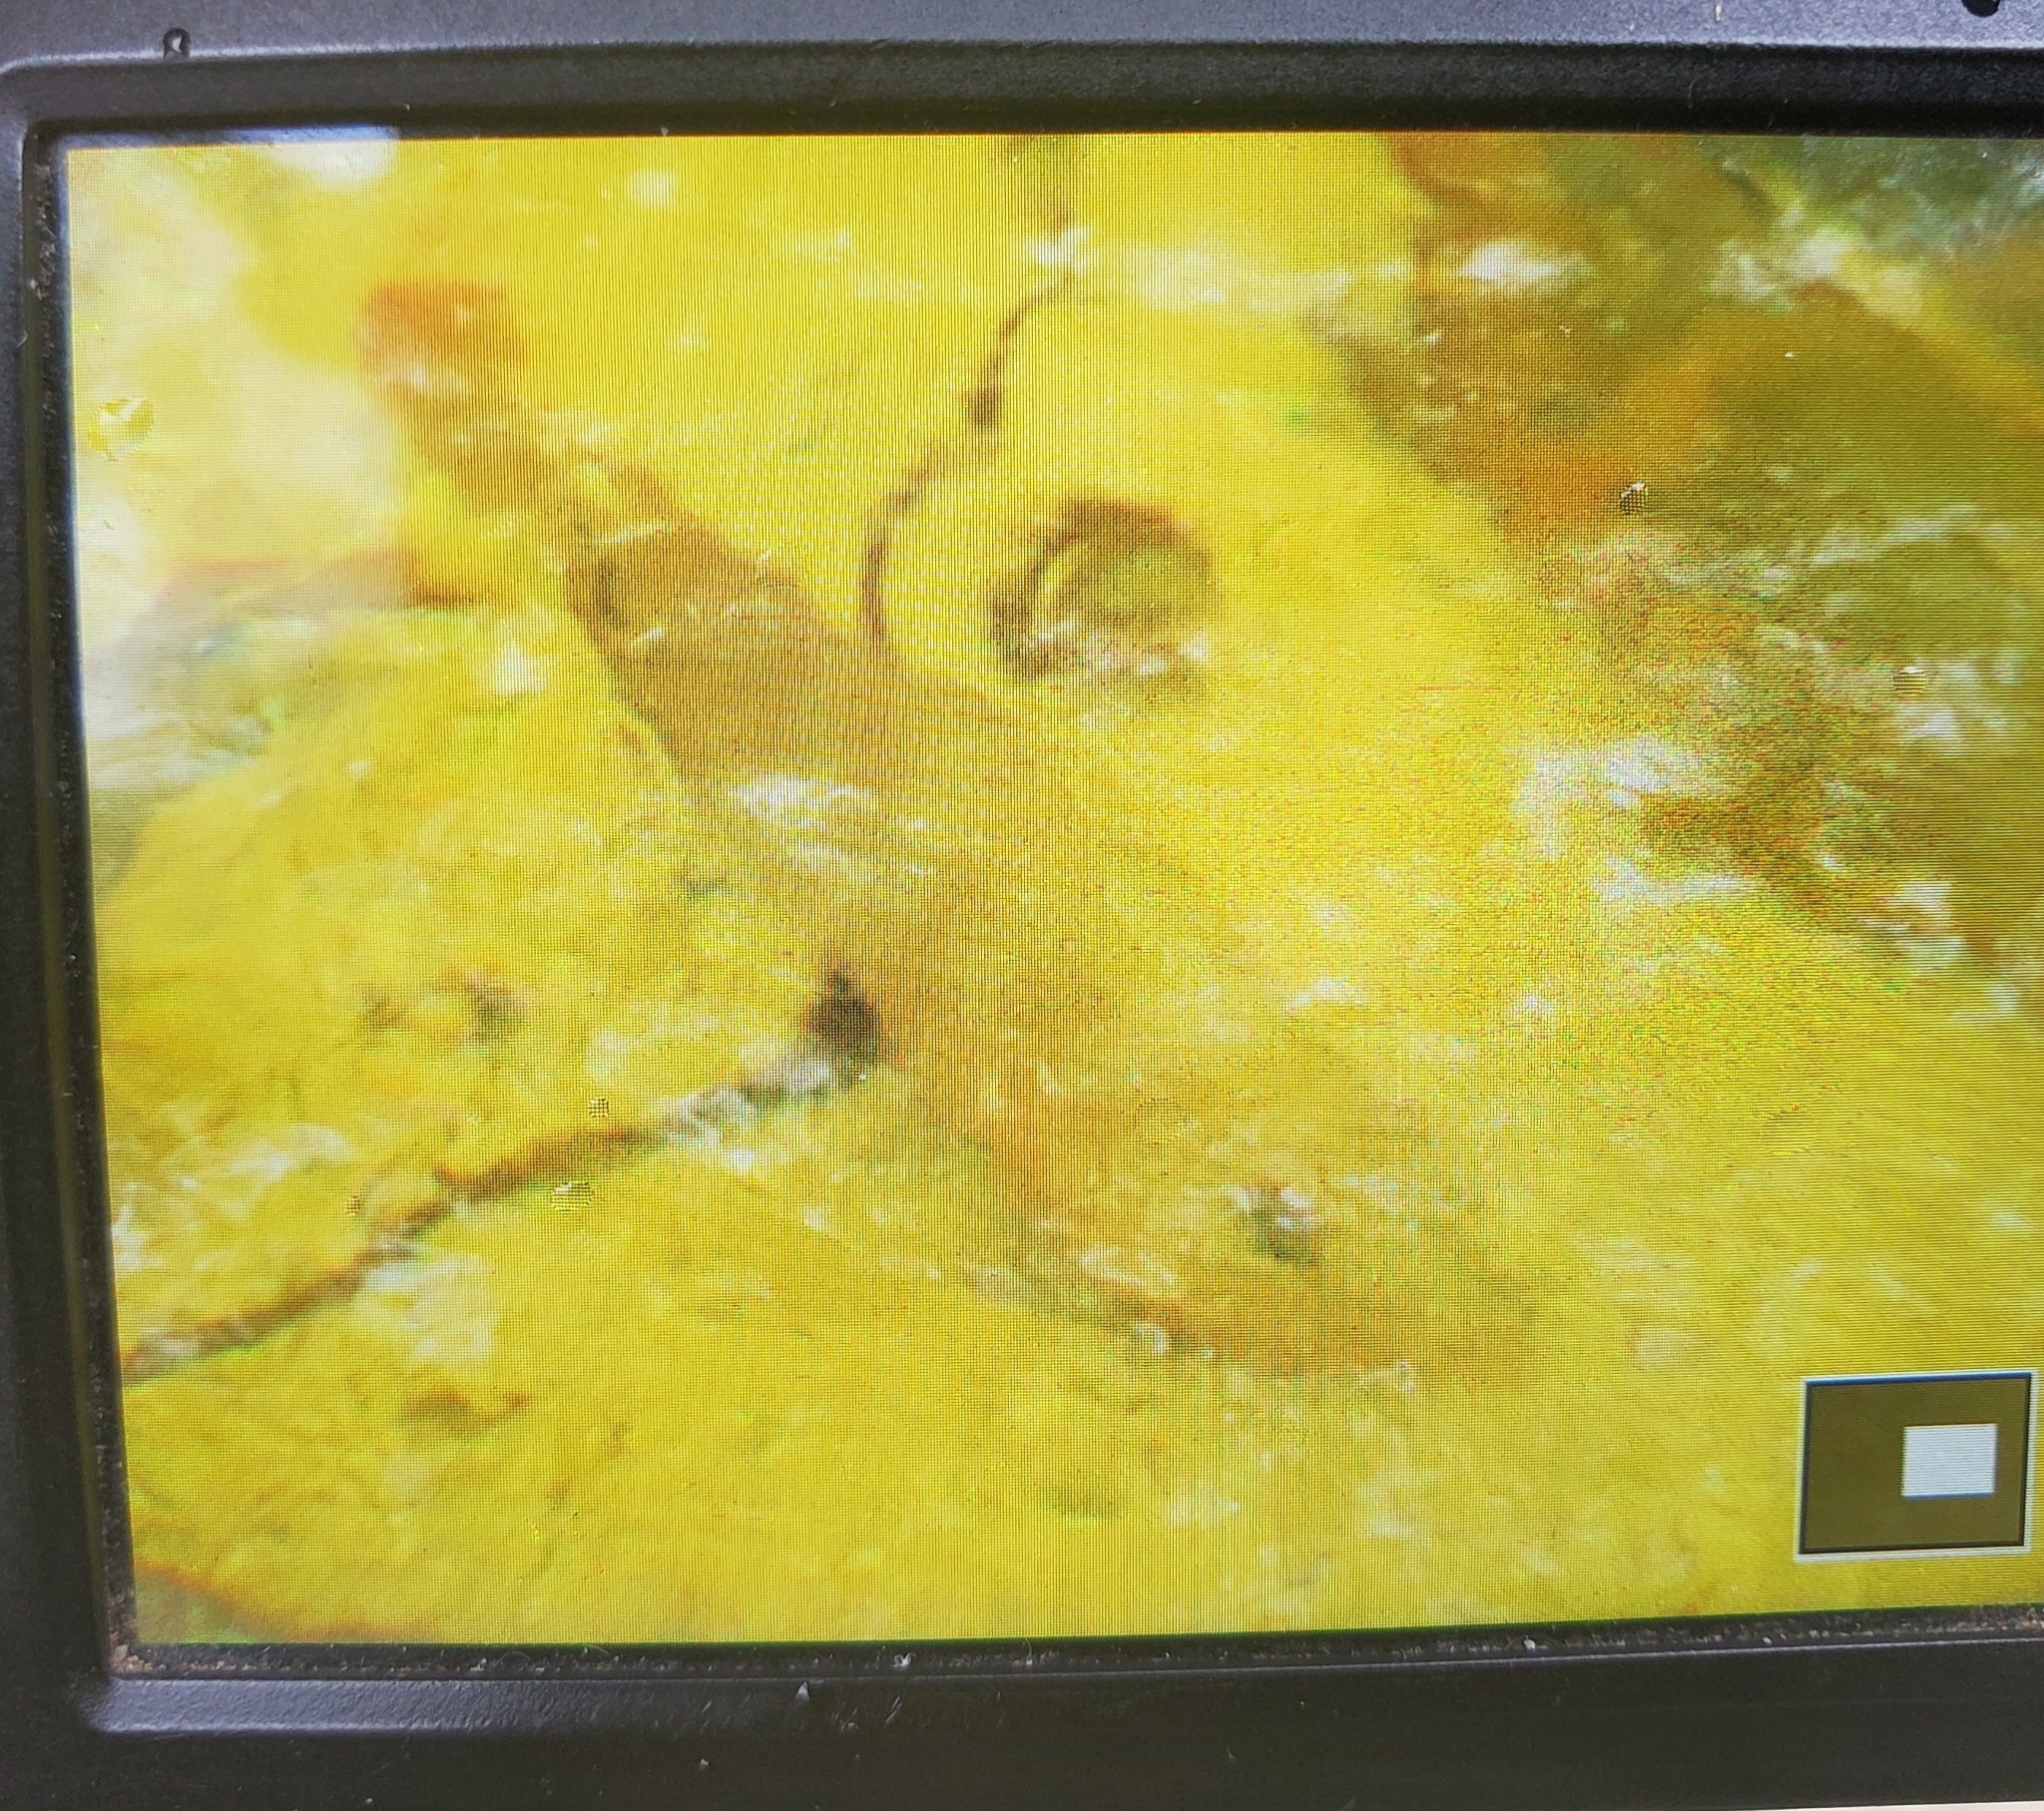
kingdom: Animalia
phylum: Chordata
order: Perciformes
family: Cichlidae
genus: Mayaheros
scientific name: Mayaheros urophthalmus
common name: Mayan cichlid
